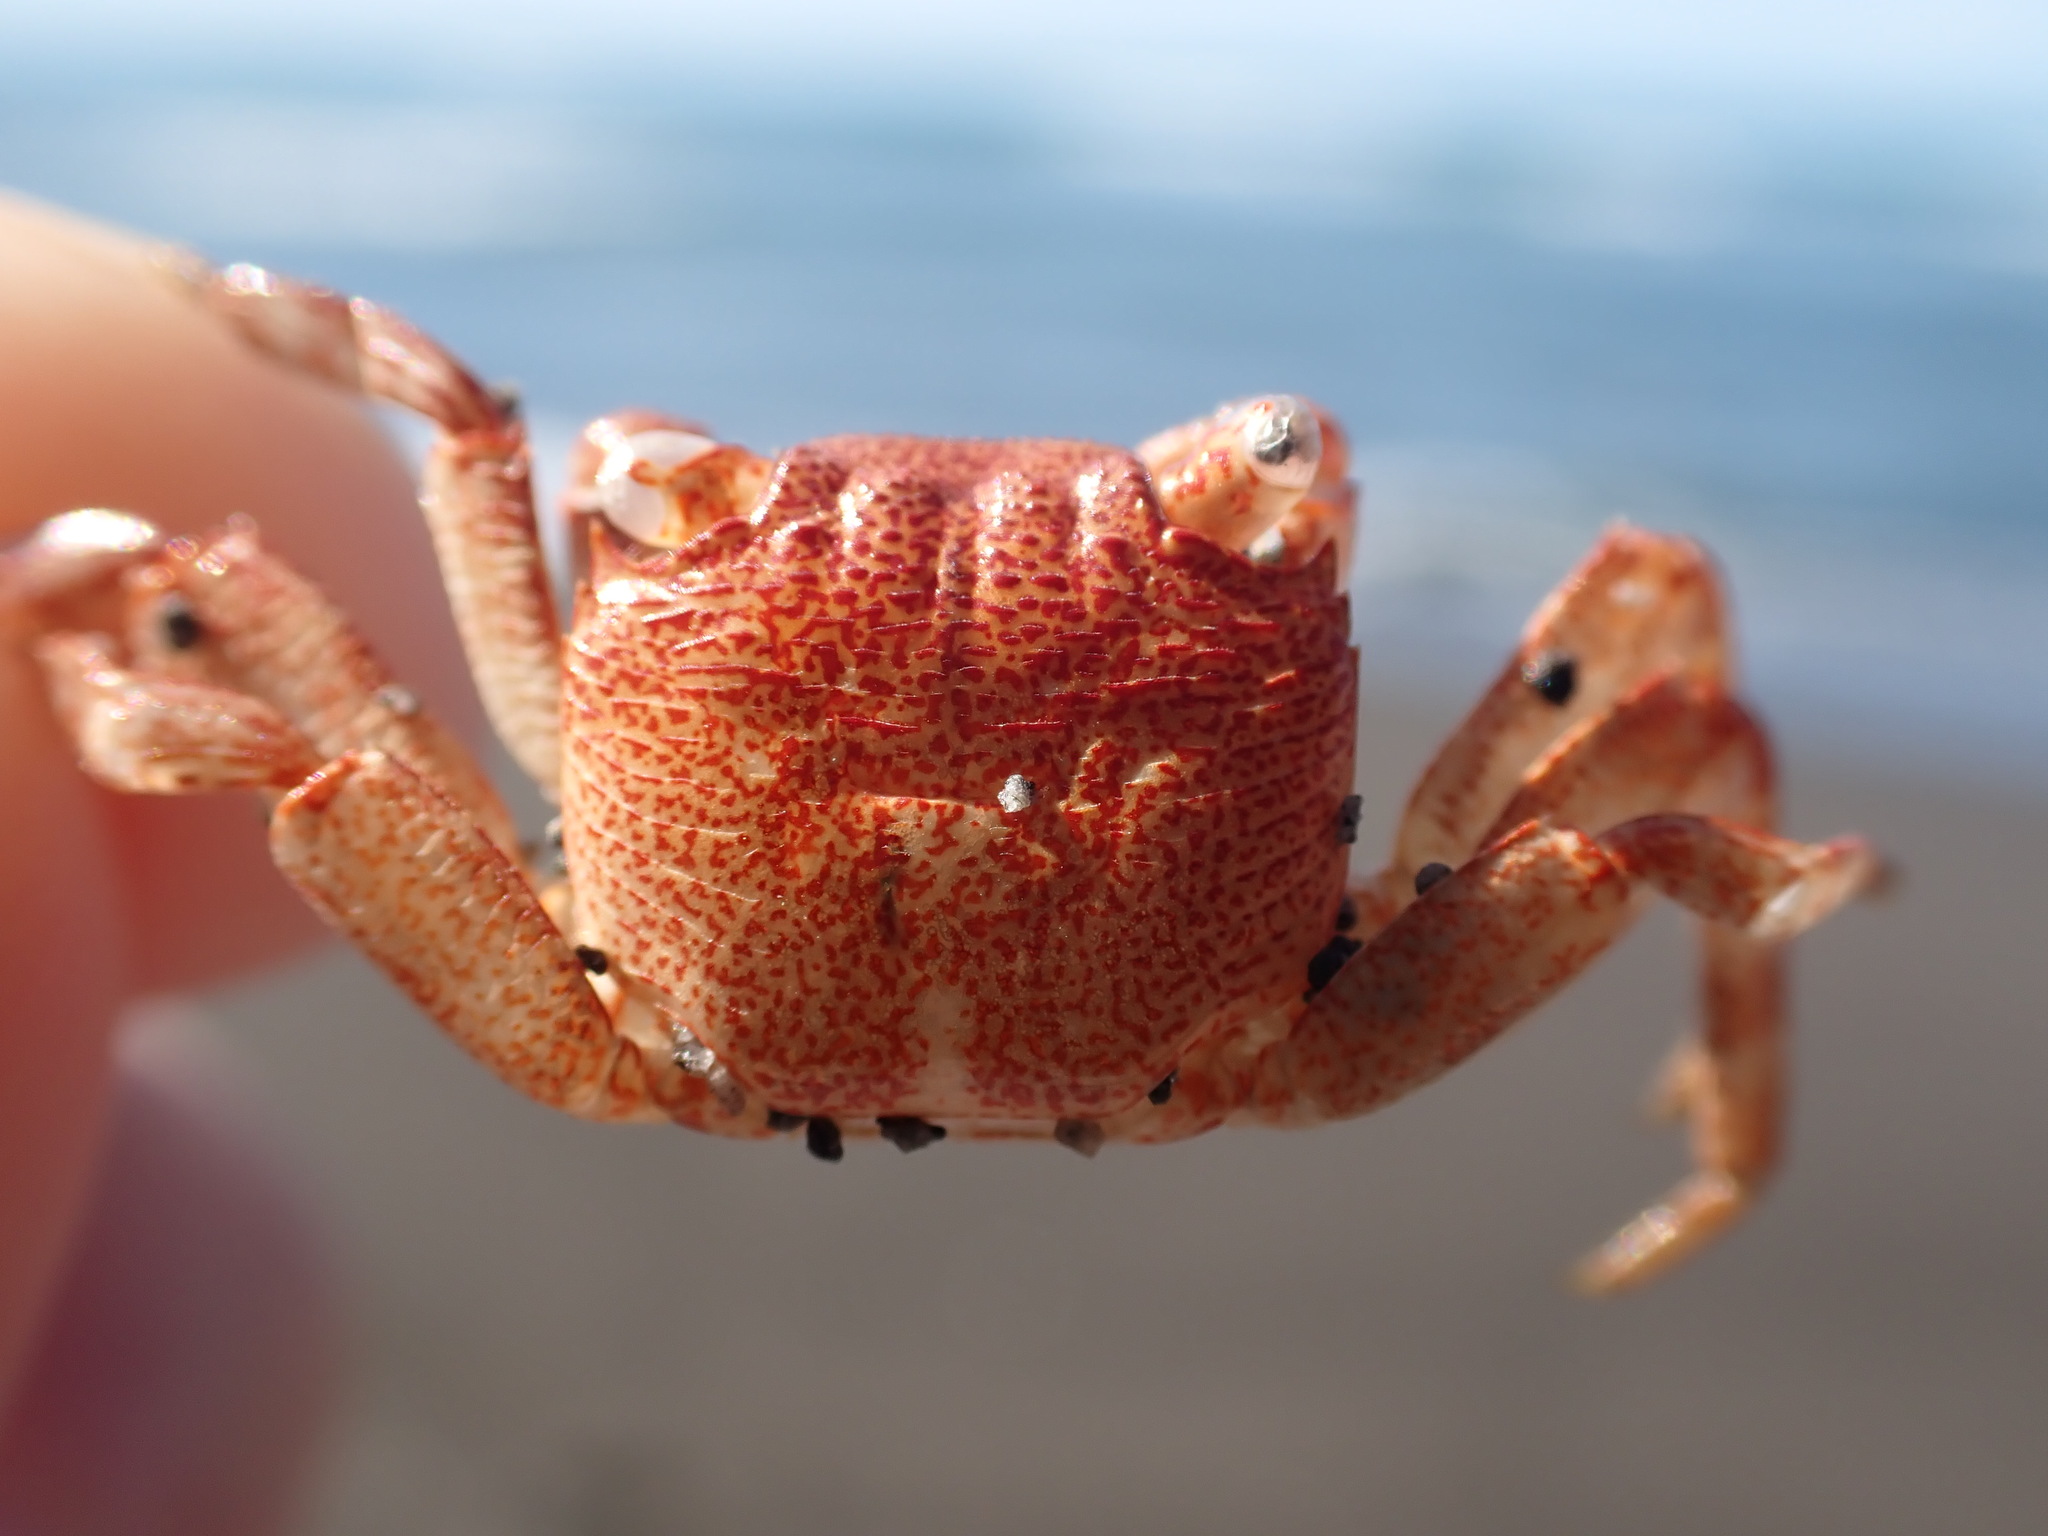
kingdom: Animalia
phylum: Arthropoda
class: Malacostraca
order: Decapoda
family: Grapsidae
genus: Leptograpsus
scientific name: Leptograpsus variegatus
